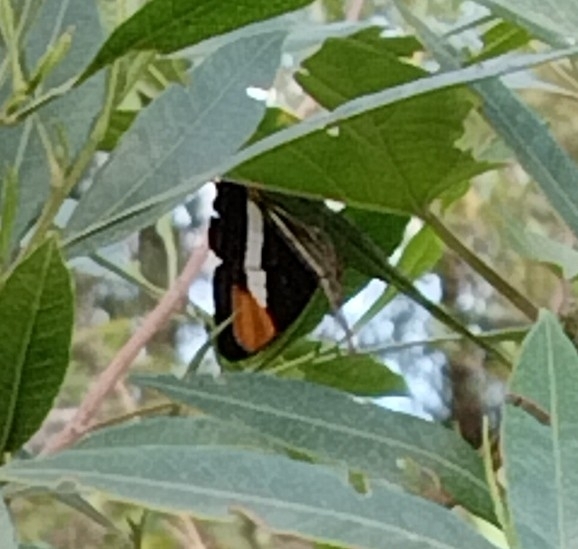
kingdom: Animalia
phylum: Arthropoda
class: Insecta
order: Lepidoptera
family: Nymphalidae
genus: Limenitis
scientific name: Limenitis syma
